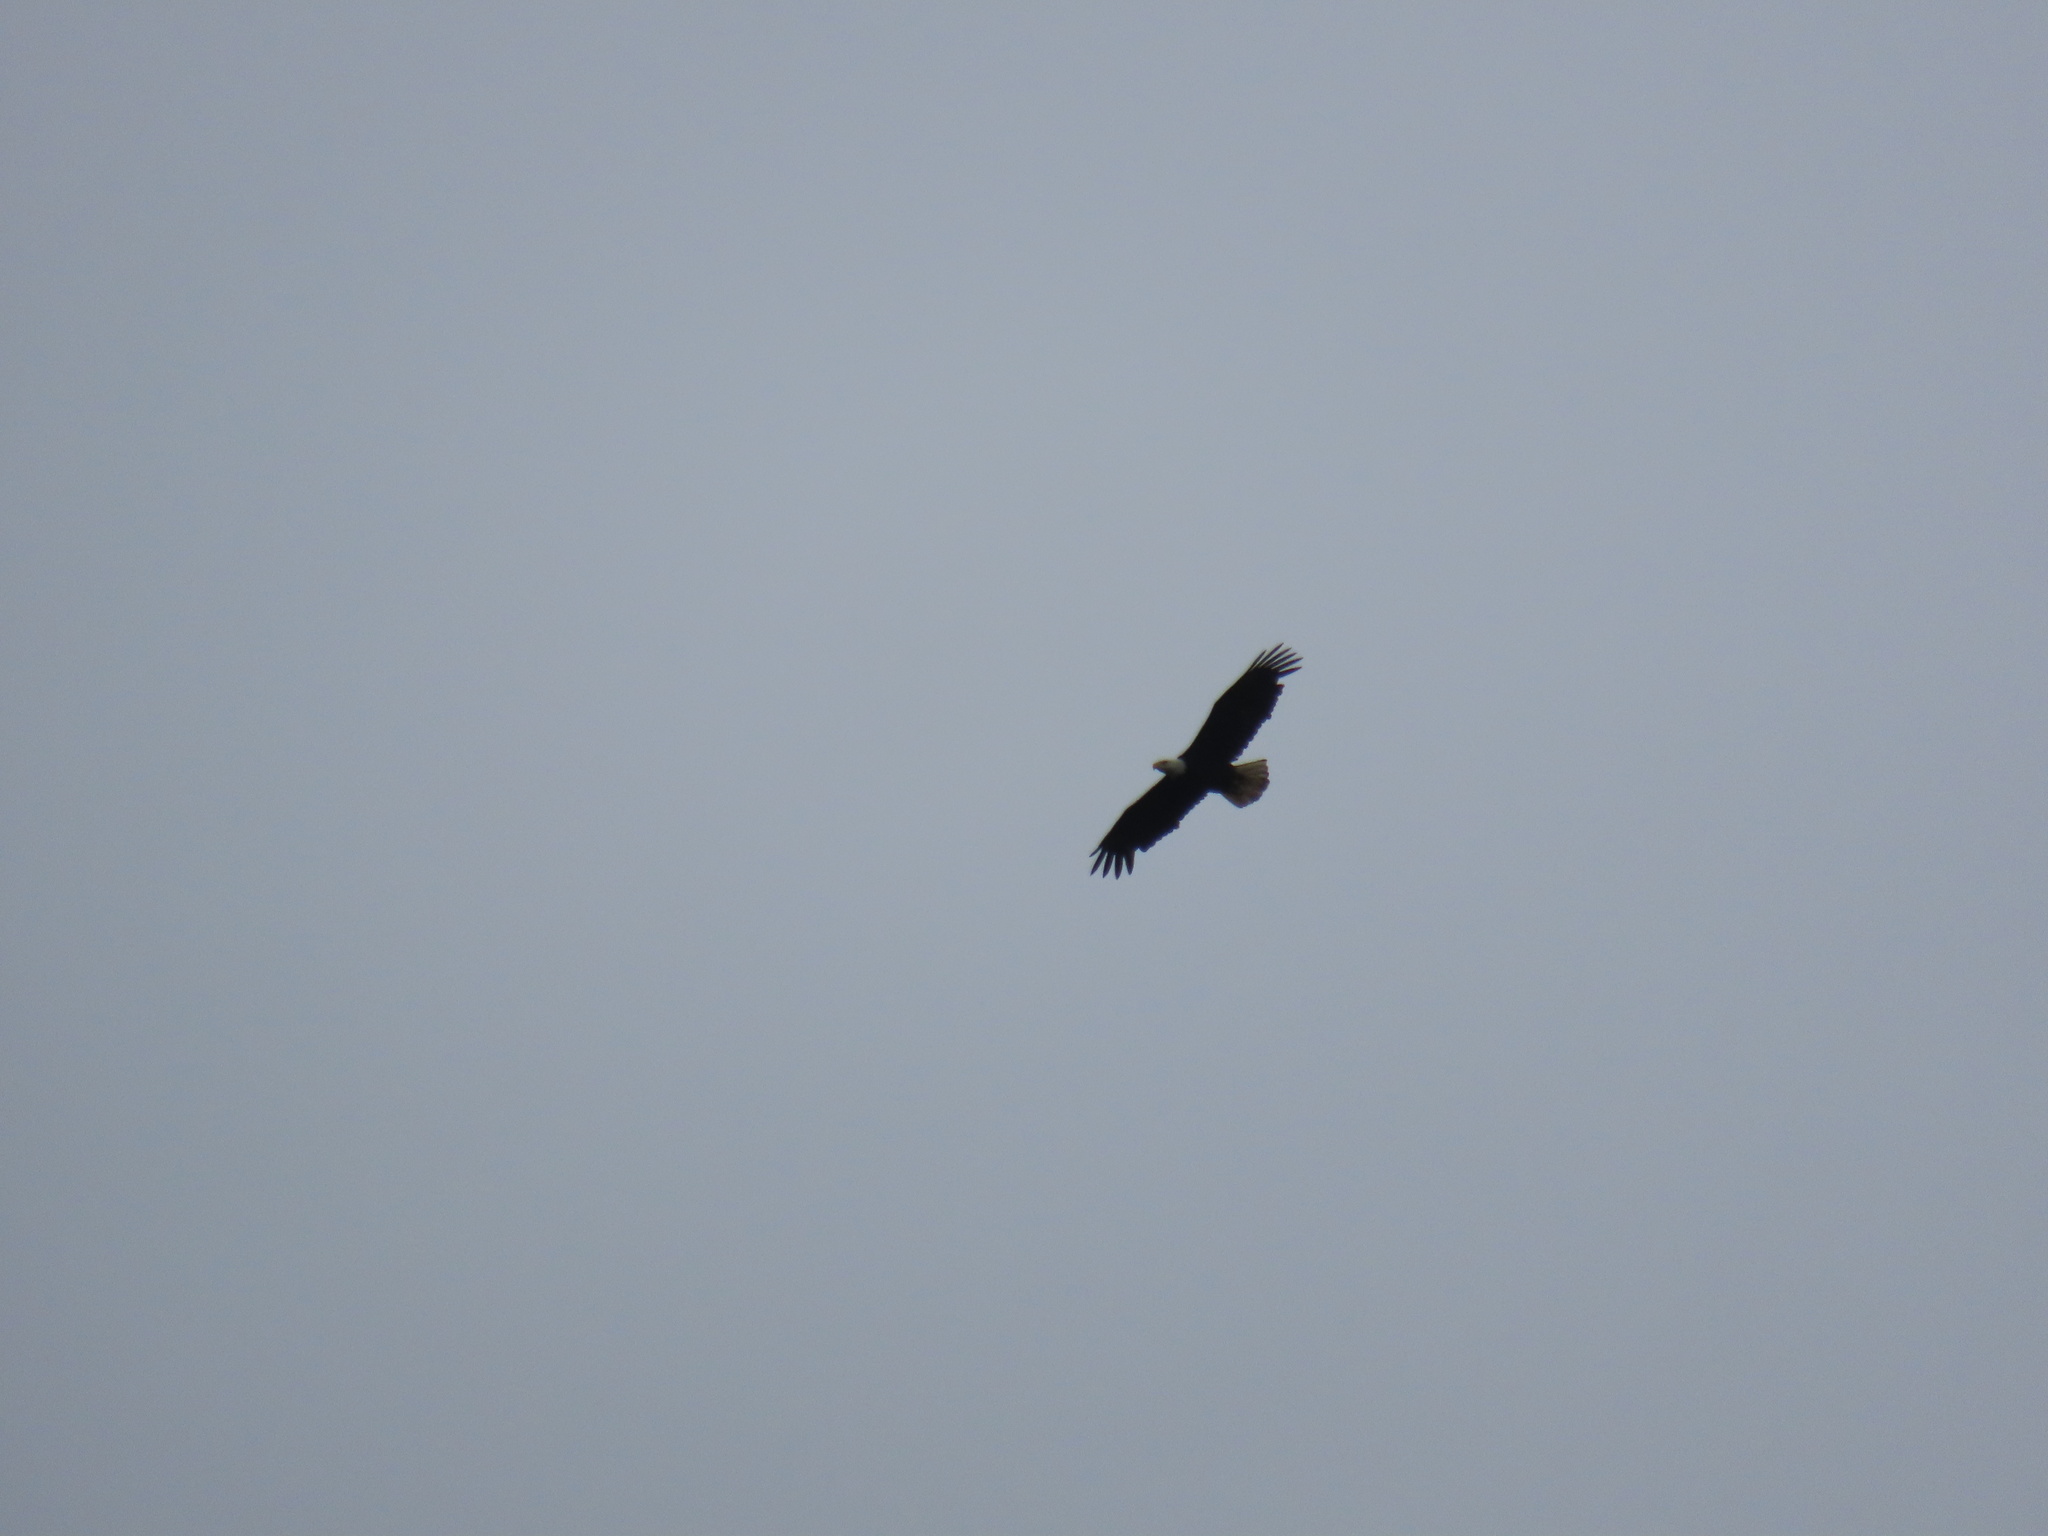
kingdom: Animalia
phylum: Chordata
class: Aves
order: Accipitriformes
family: Accipitridae
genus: Haliaeetus
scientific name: Haliaeetus leucocephalus
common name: Bald eagle
